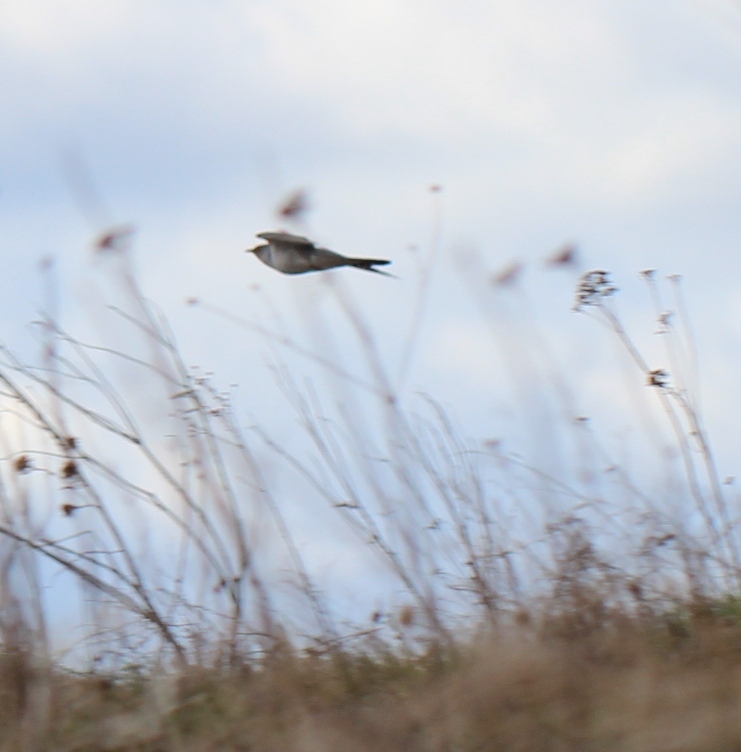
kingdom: Animalia
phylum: Chordata
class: Aves
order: Cuculiformes
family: Cuculidae
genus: Cuculus
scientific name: Cuculus canorus
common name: Common cuckoo
